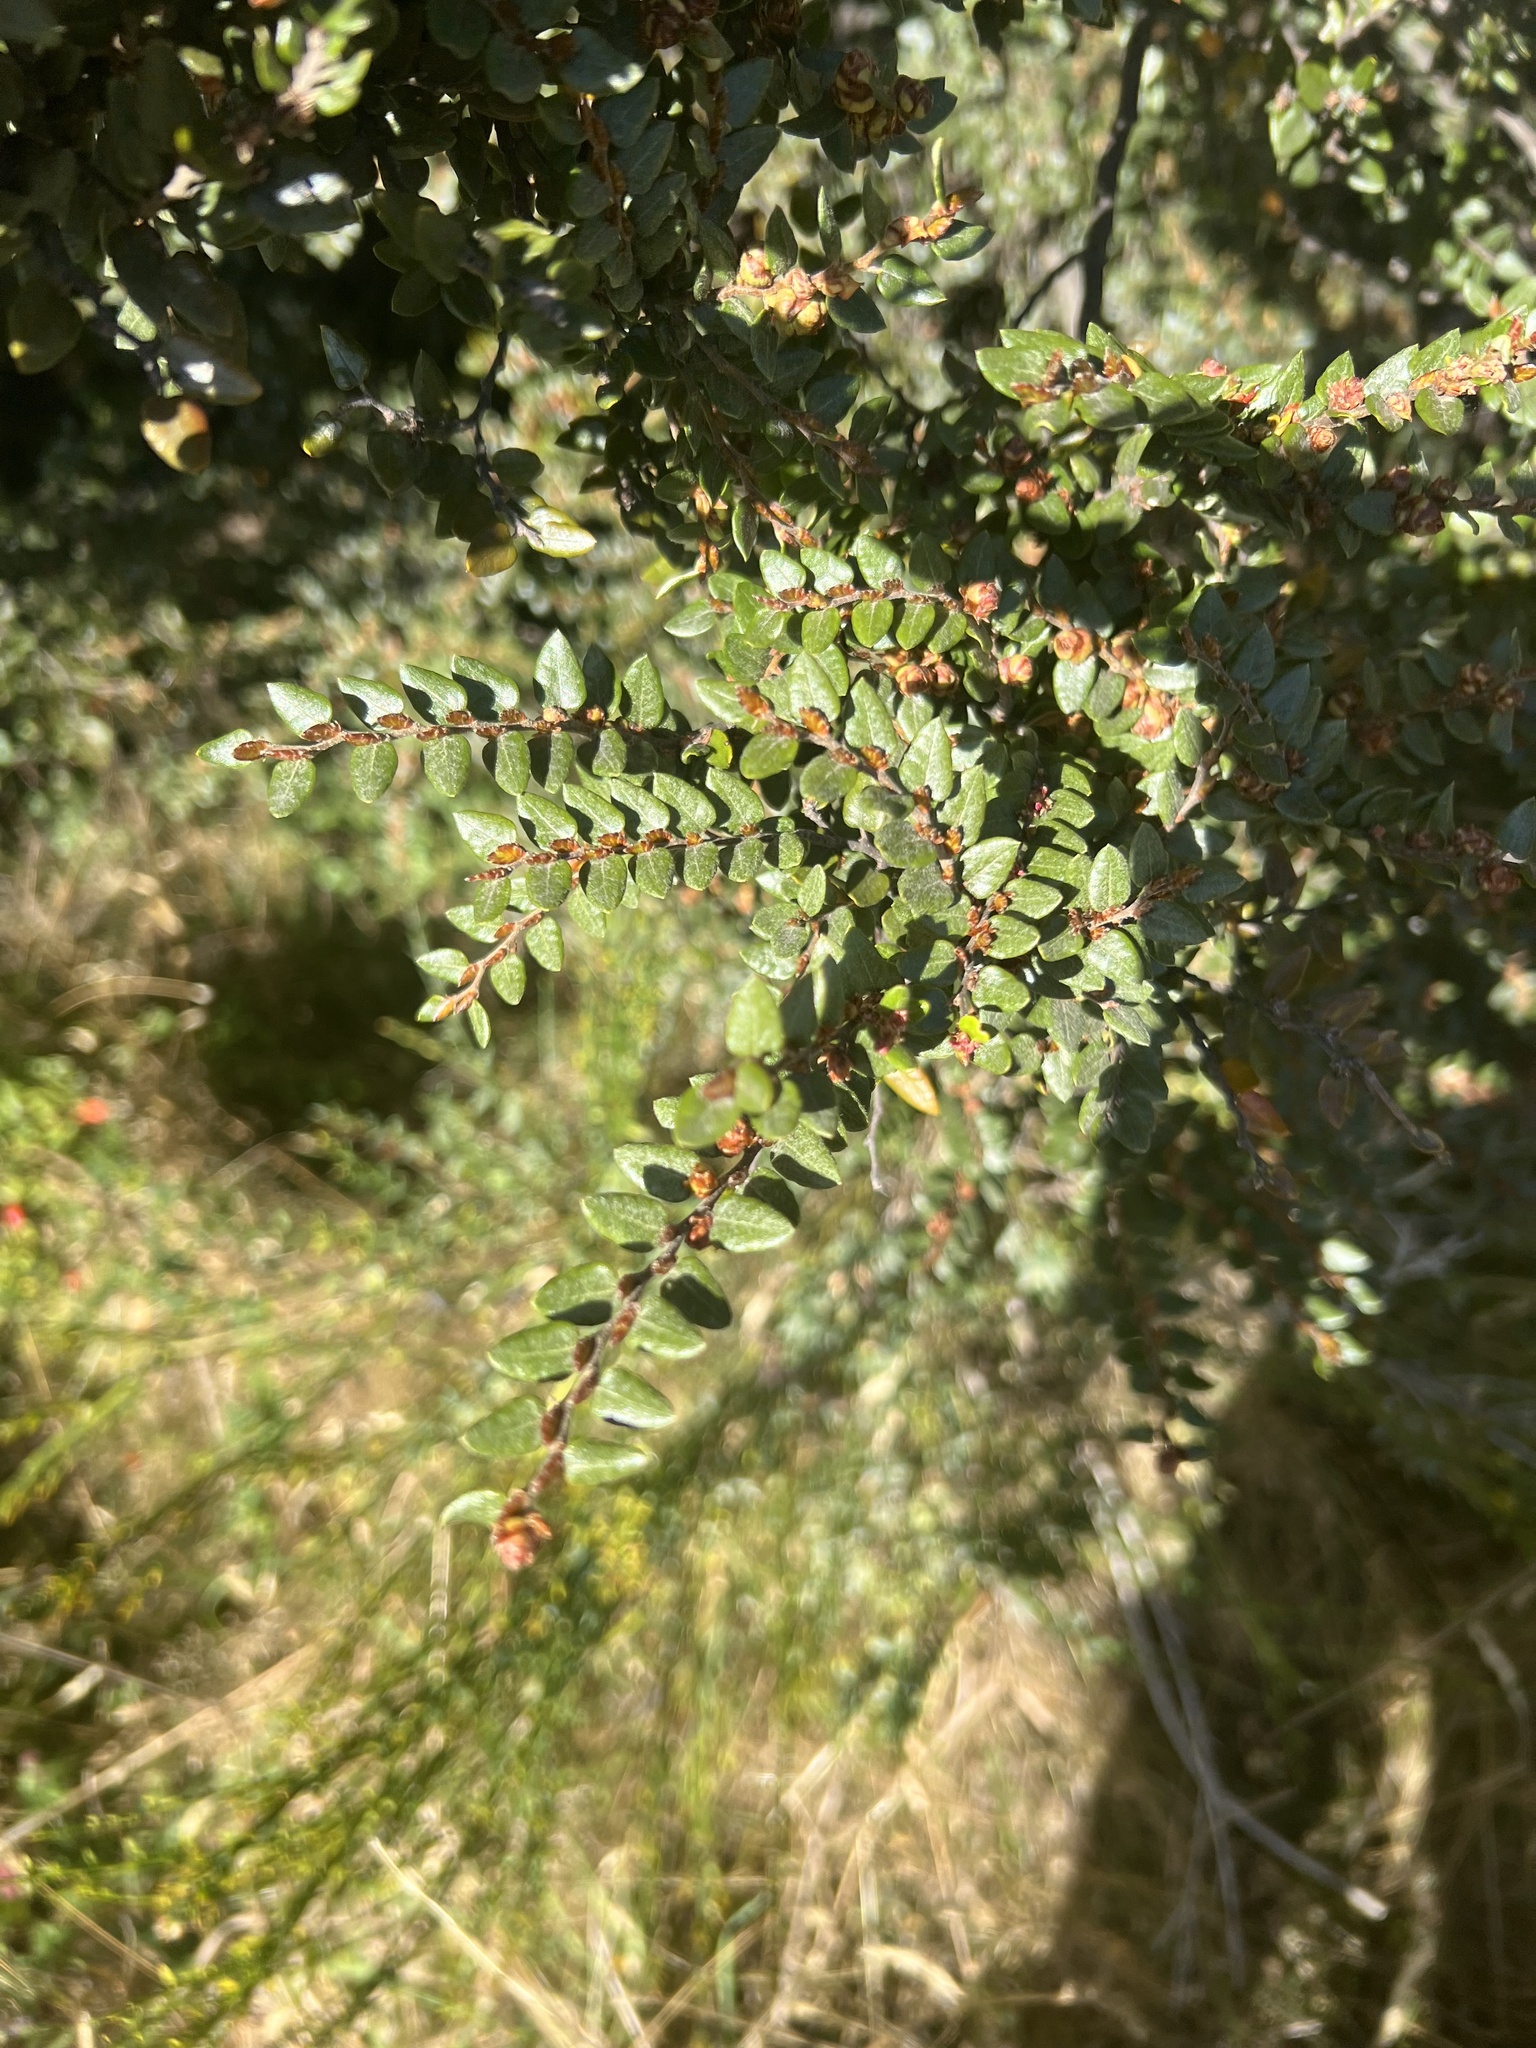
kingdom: Plantae
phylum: Tracheophyta
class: Magnoliopsida
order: Fagales
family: Nothofagaceae
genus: Nothofagus
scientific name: Nothofagus cliffortioides
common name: Mountain beech
